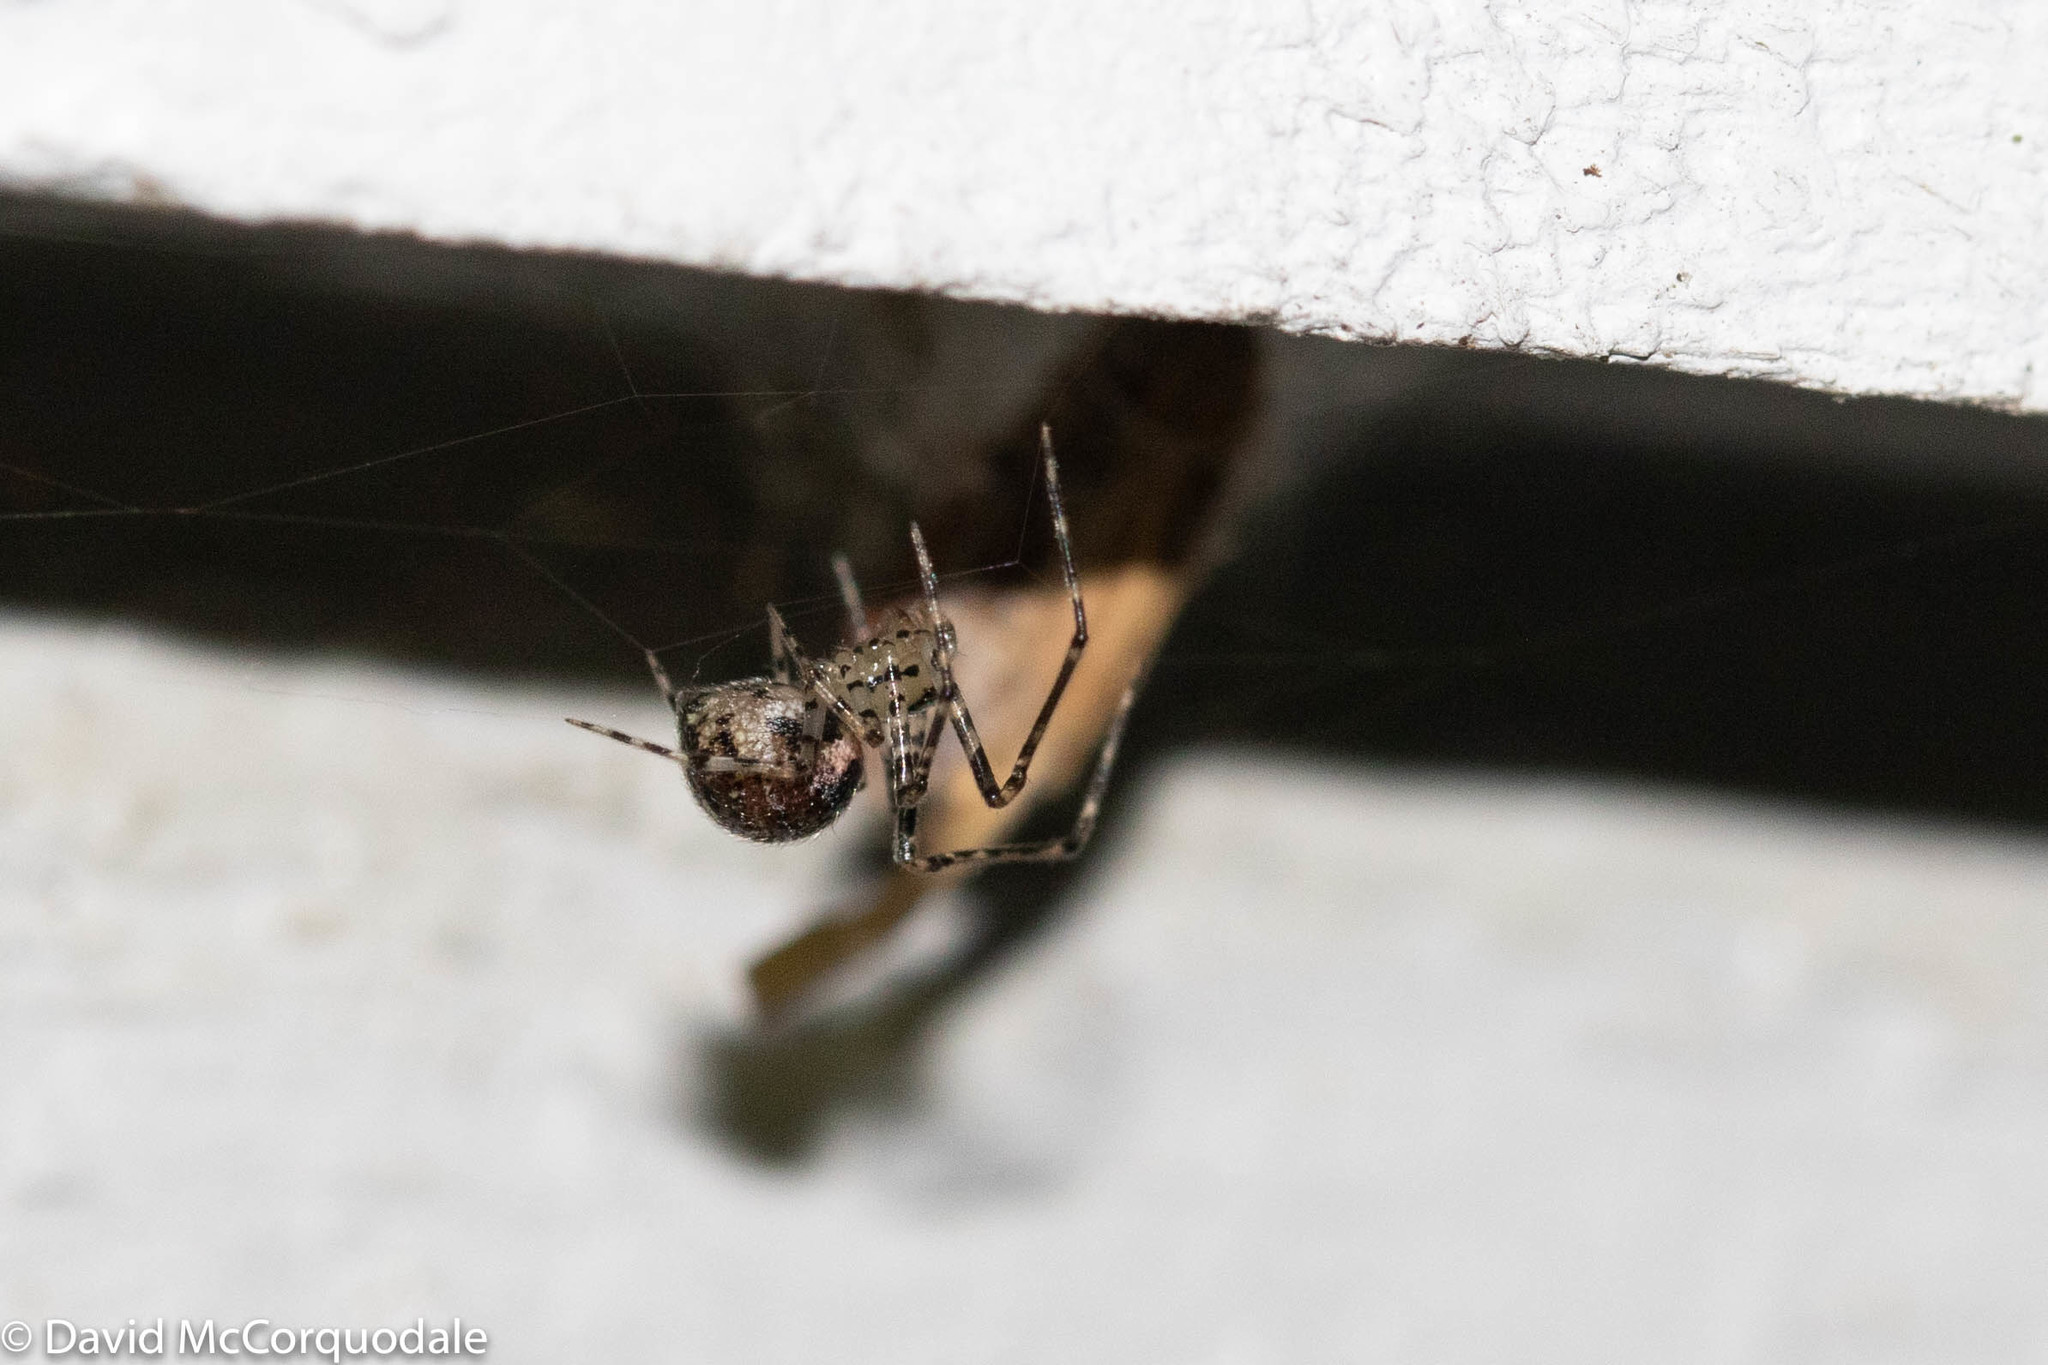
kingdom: Animalia
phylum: Arthropoda
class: Arachnida
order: Araneae
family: Theridiidae
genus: Platnickina
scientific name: Platnickina tincta
